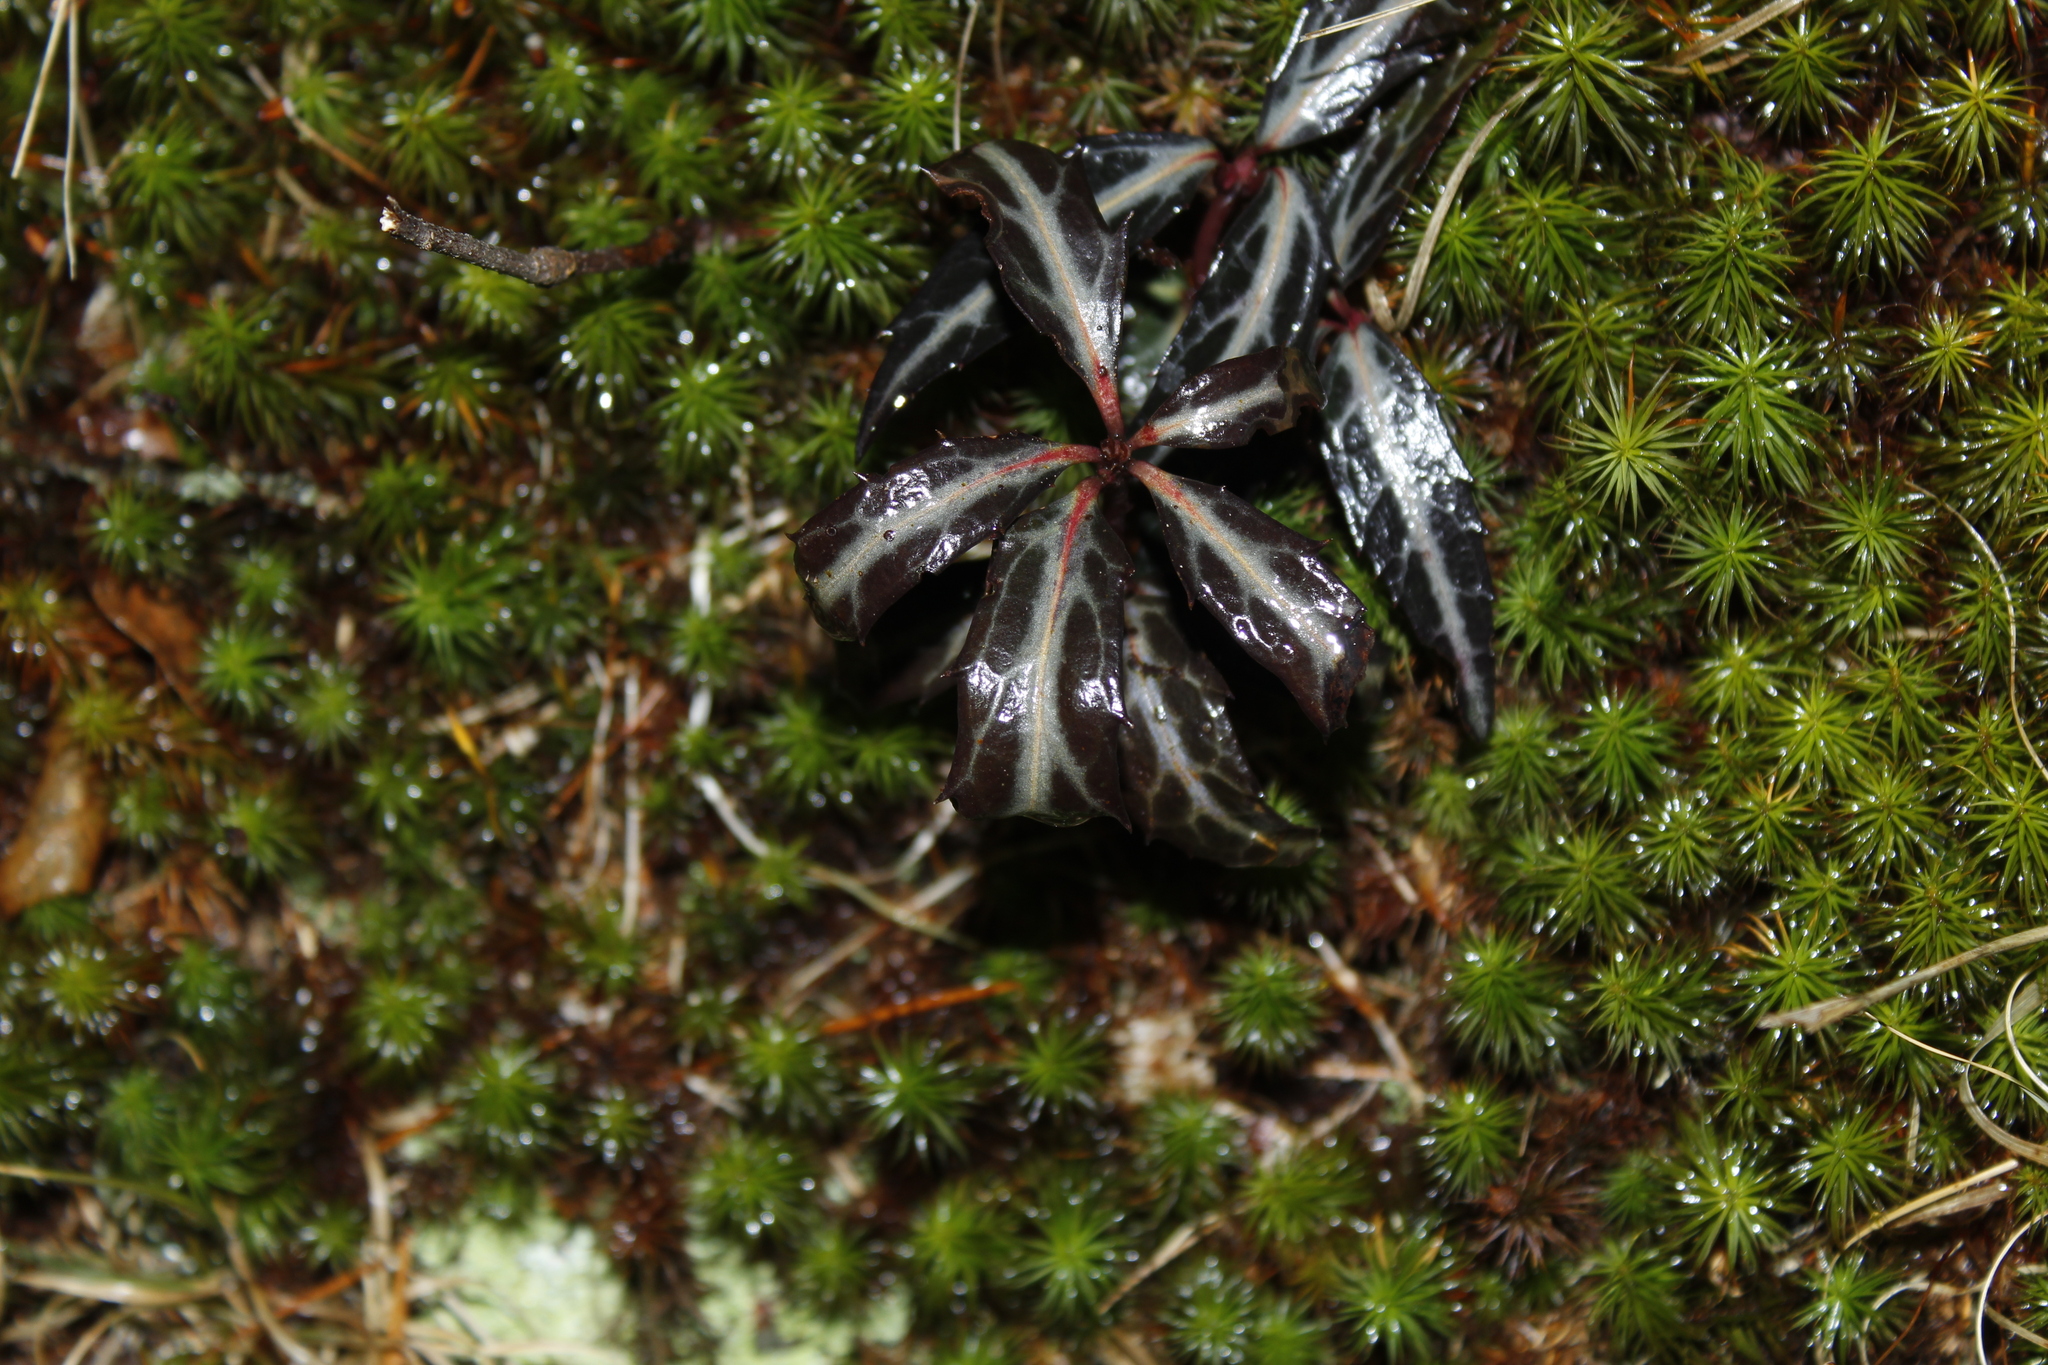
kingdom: Plantae
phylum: Tracheophyta
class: Magnoliopsida
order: Ericales
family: Ericaceae
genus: Chimaphila
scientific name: Chimaphila maculata
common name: Spotted pipsissewa
